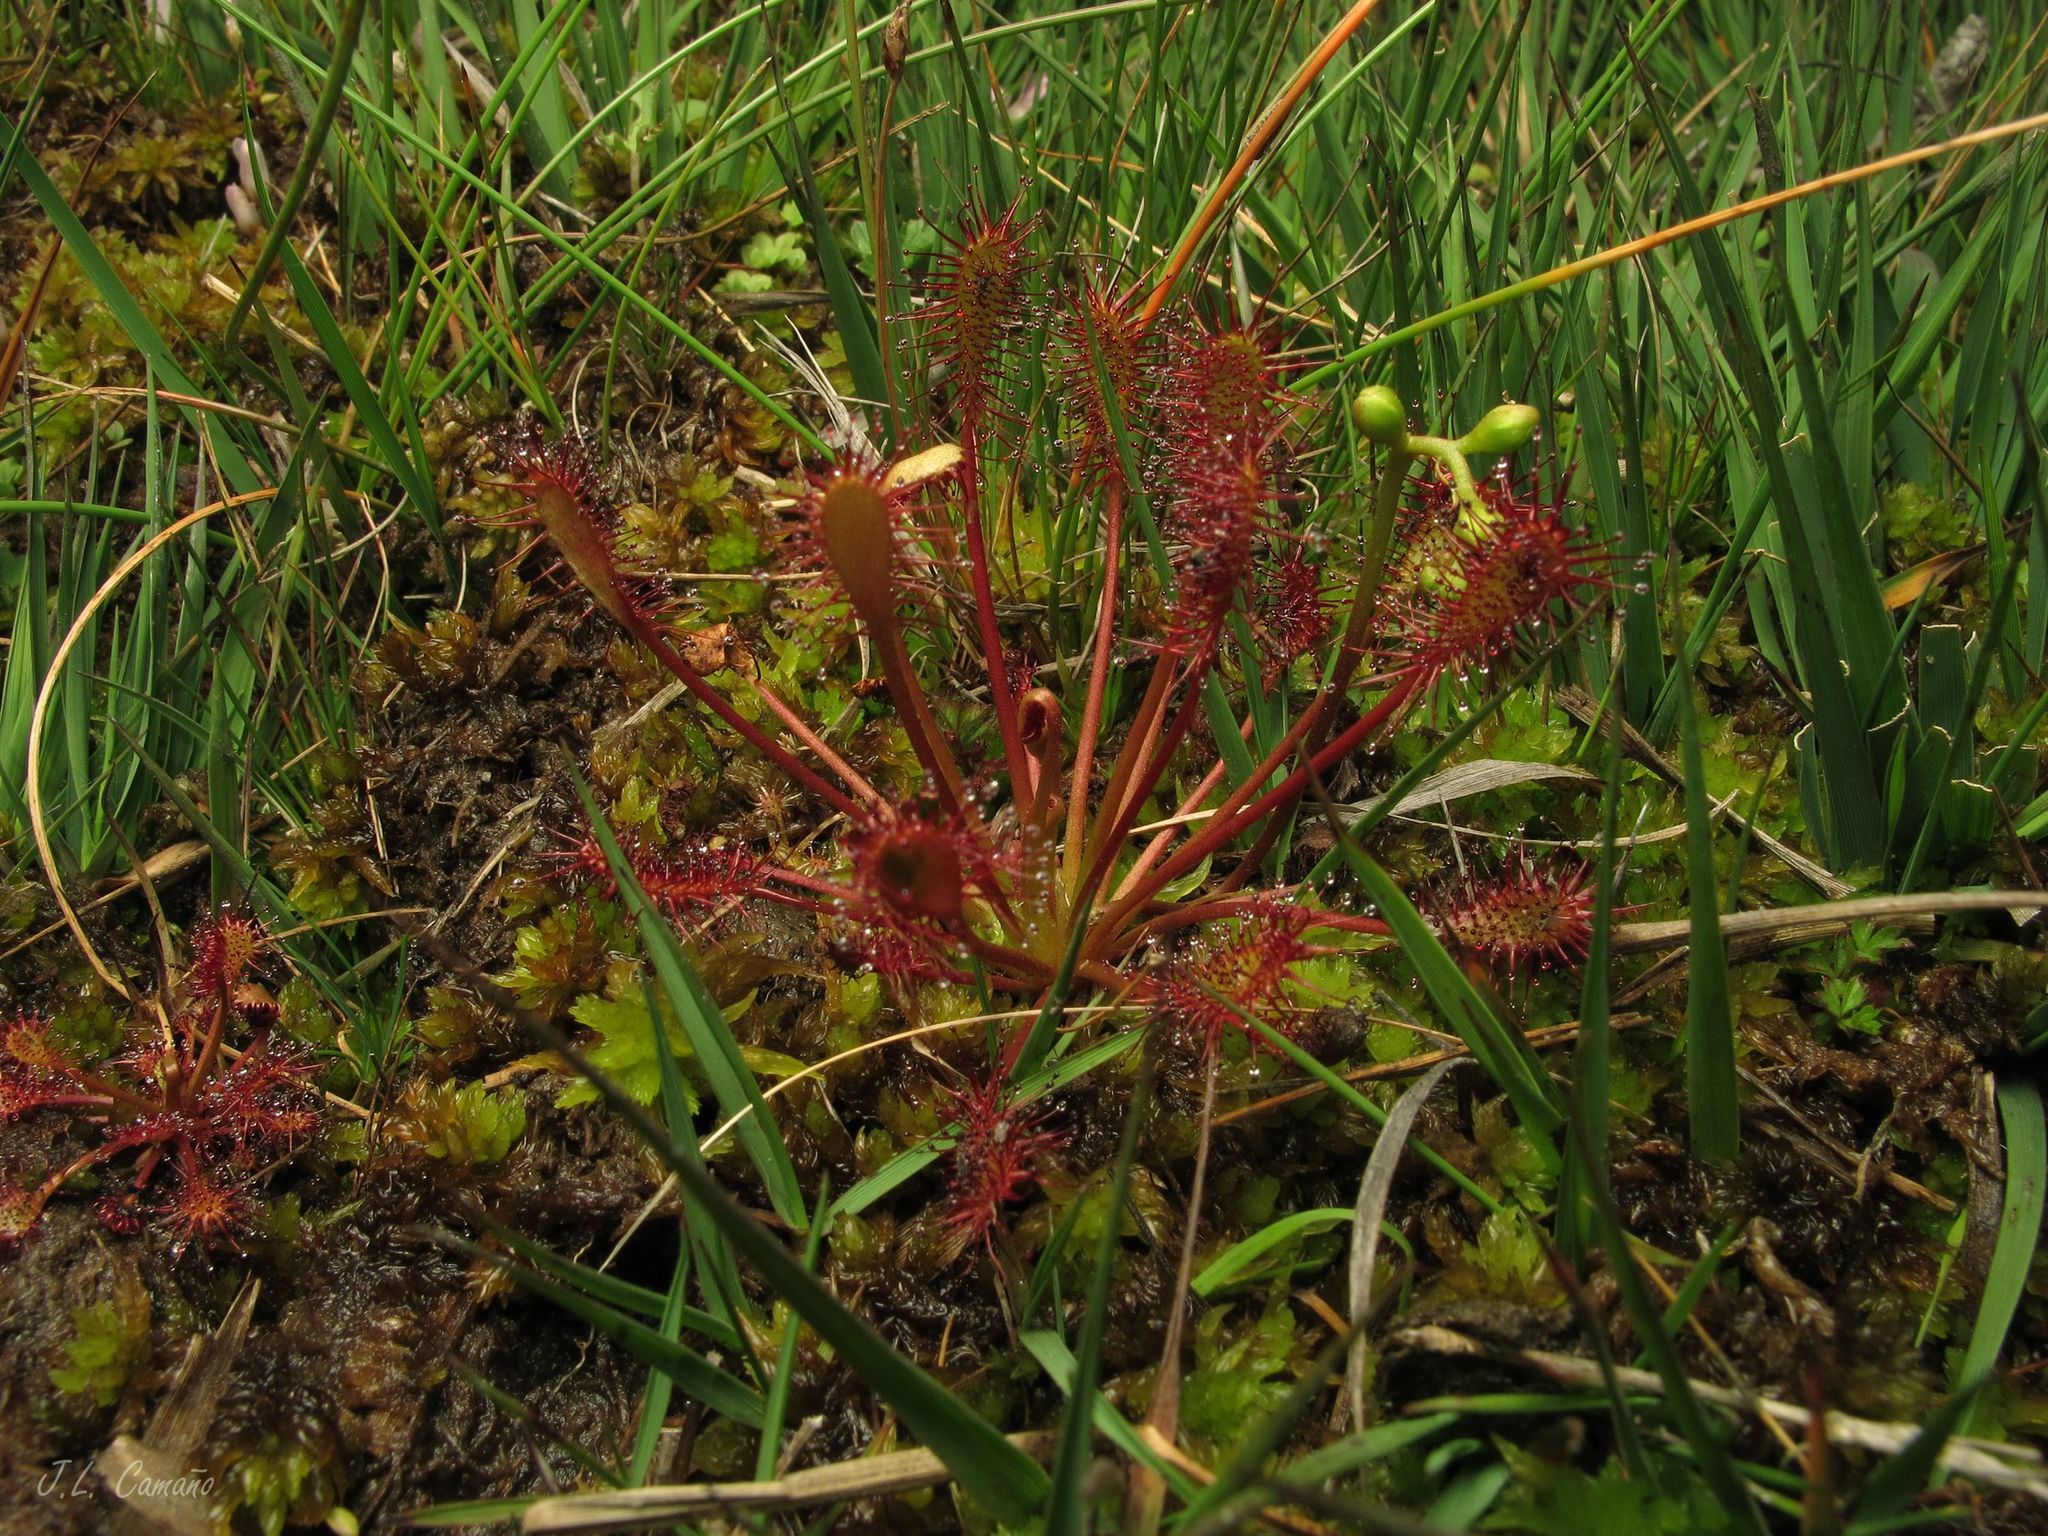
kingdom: Plantae
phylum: Tracheophyta
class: Magnoliopsida
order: Caryophyllales
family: Droseraceae
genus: Drosera
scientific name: Drosera intermedia
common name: Oblong-leaved sundew
